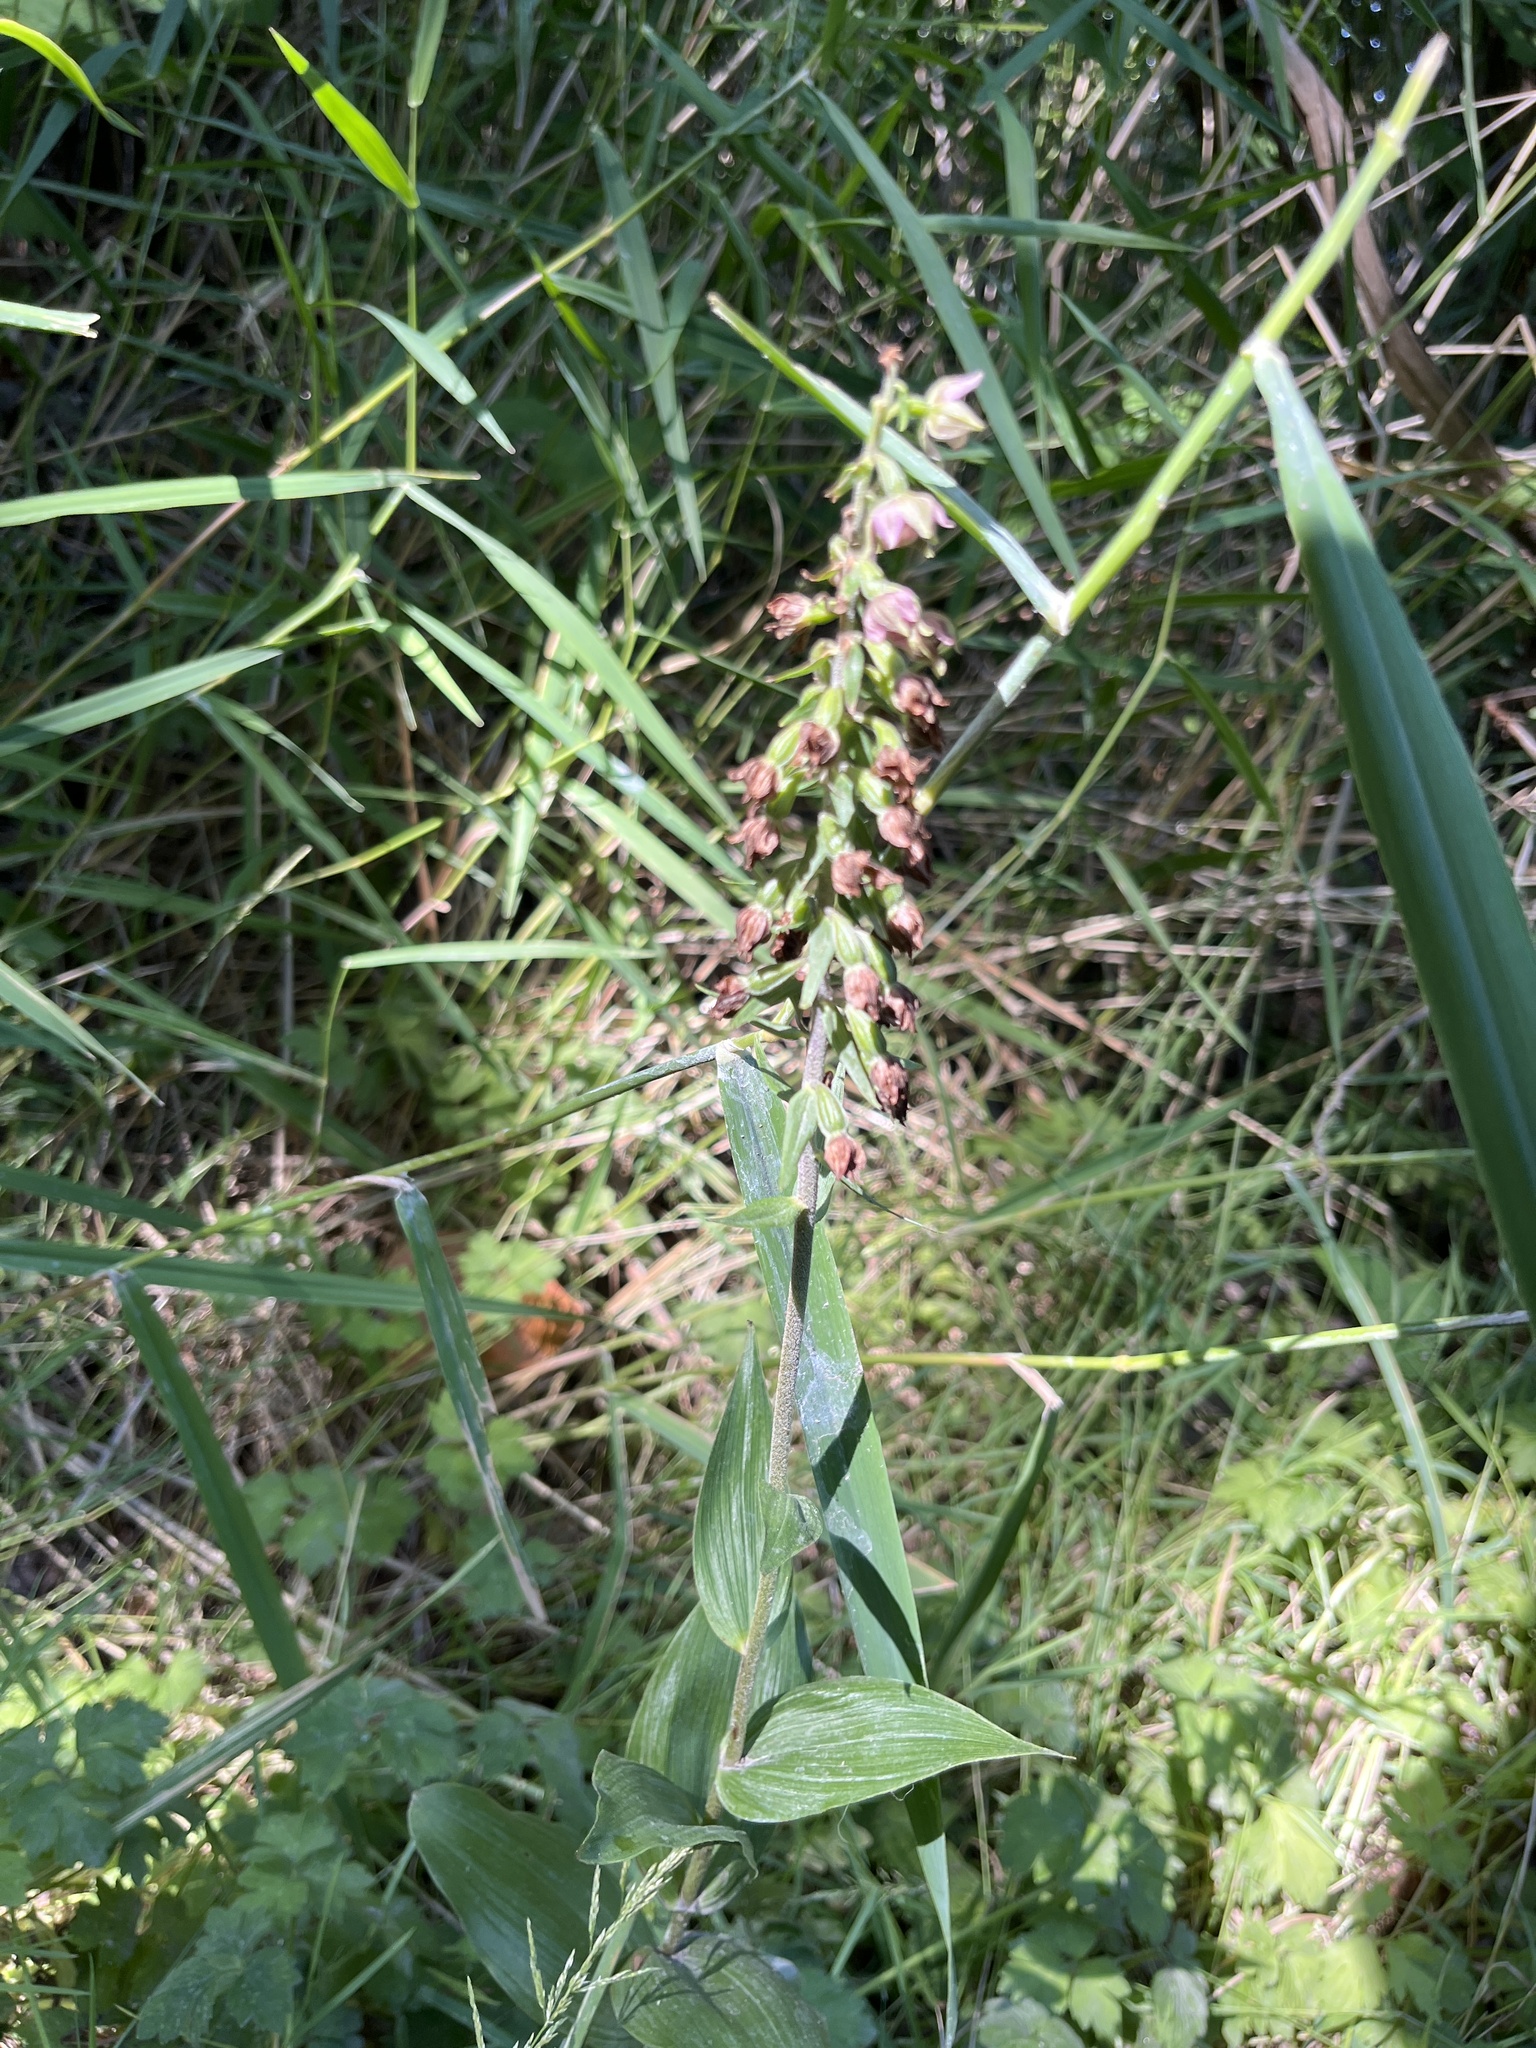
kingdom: Plantae
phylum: Tracheophyta
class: Liliopsida
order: Asparagales
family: Orchidaceae
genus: Epipactis
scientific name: Epipactis helleborine
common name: Broad-leaved helleborine
